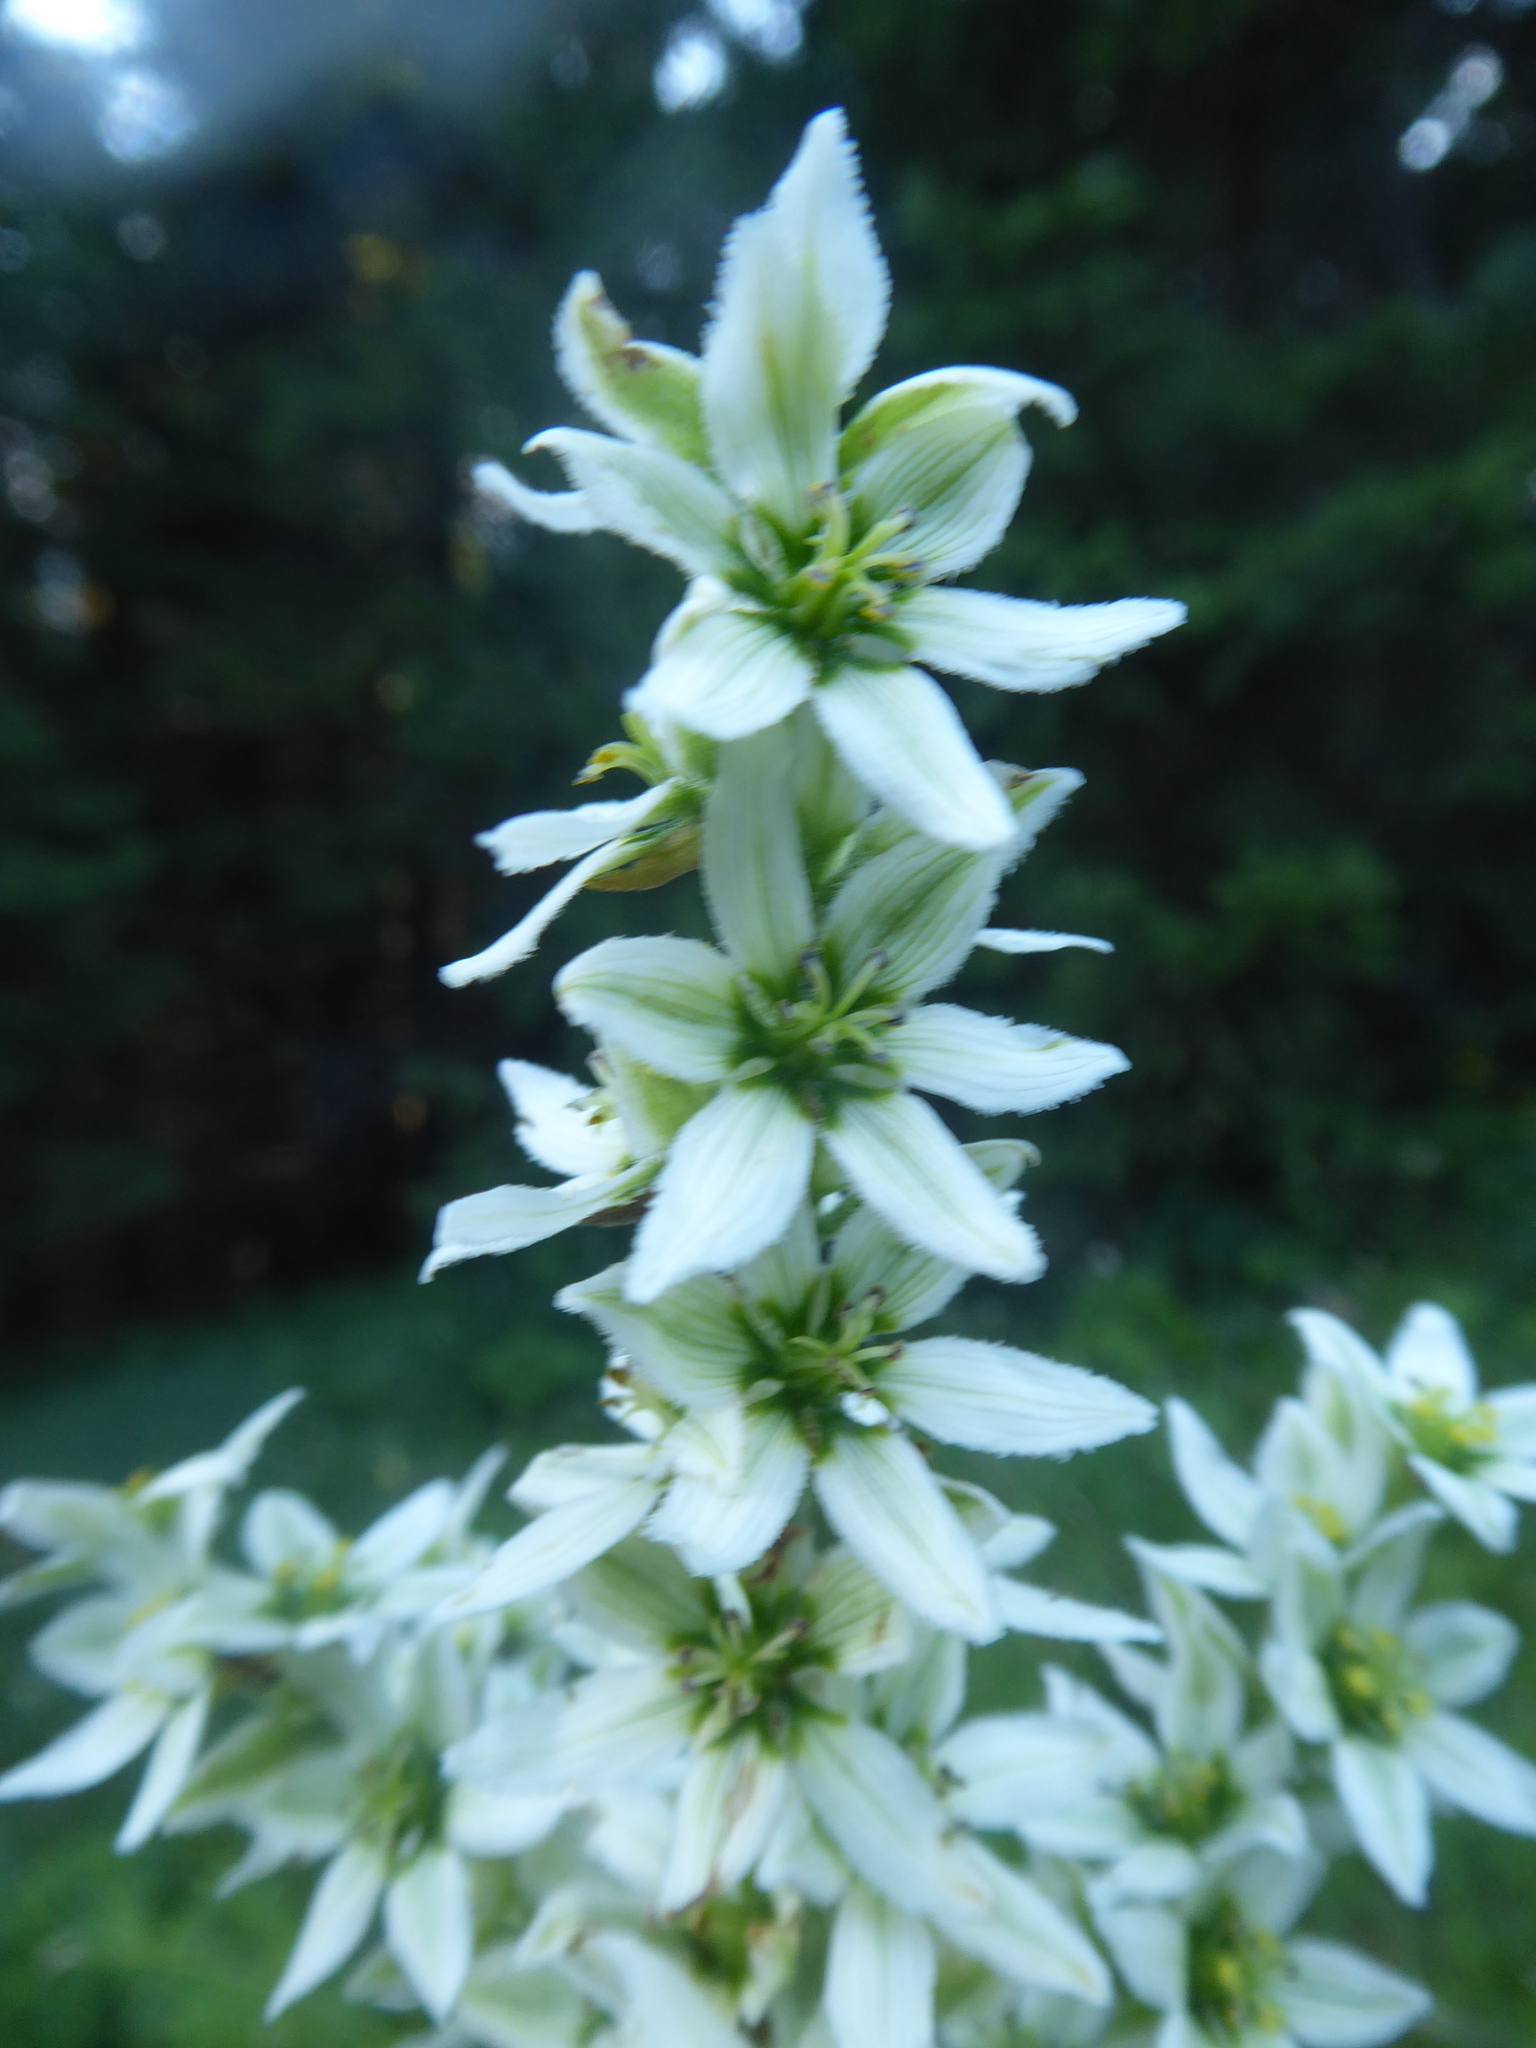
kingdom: Plantae
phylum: Tracheophyta
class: Liliopsida
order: Liliales
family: Melanthiaceae
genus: Veratrum
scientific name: Veratrum album
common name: White veratrum
